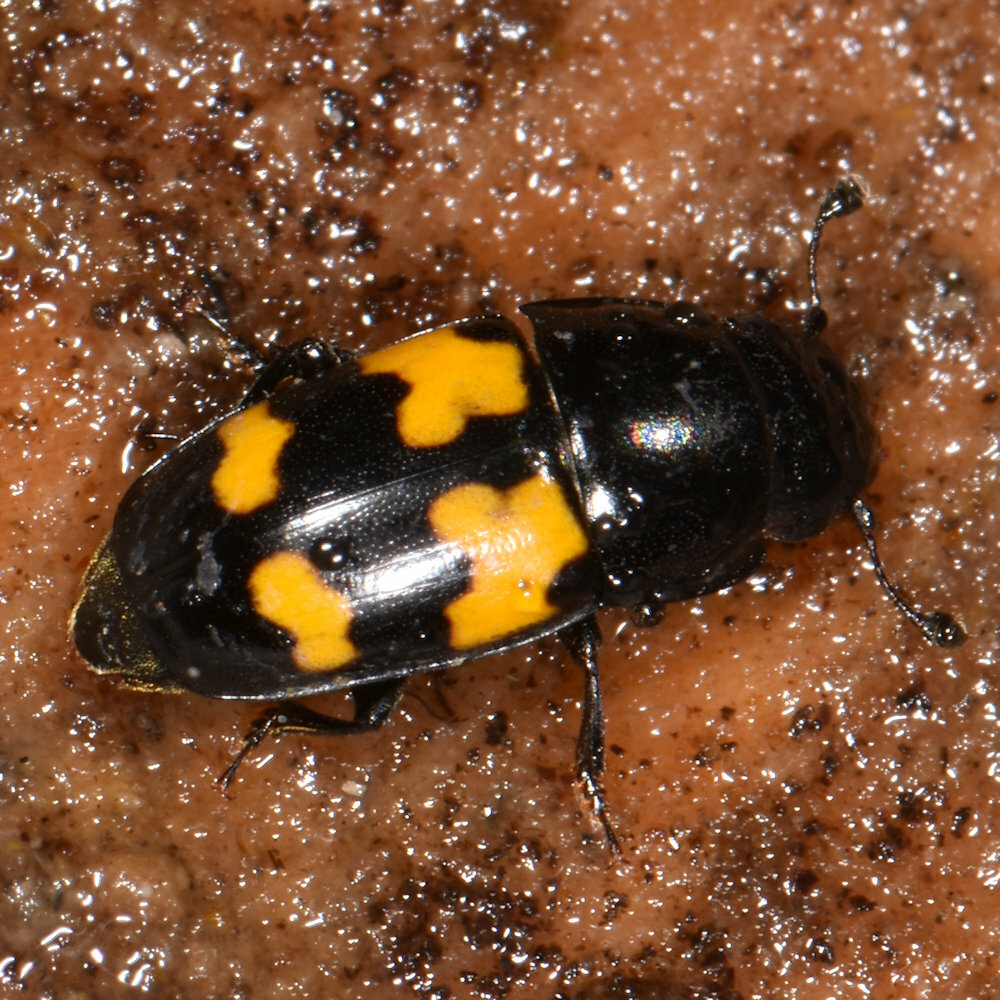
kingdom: Animalia
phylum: Arthropoda
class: Insecta
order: Coleoptera
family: Nitidulidae
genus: Glischrochilus
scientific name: Glischrochilus fasciatus
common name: Picnic beetle
